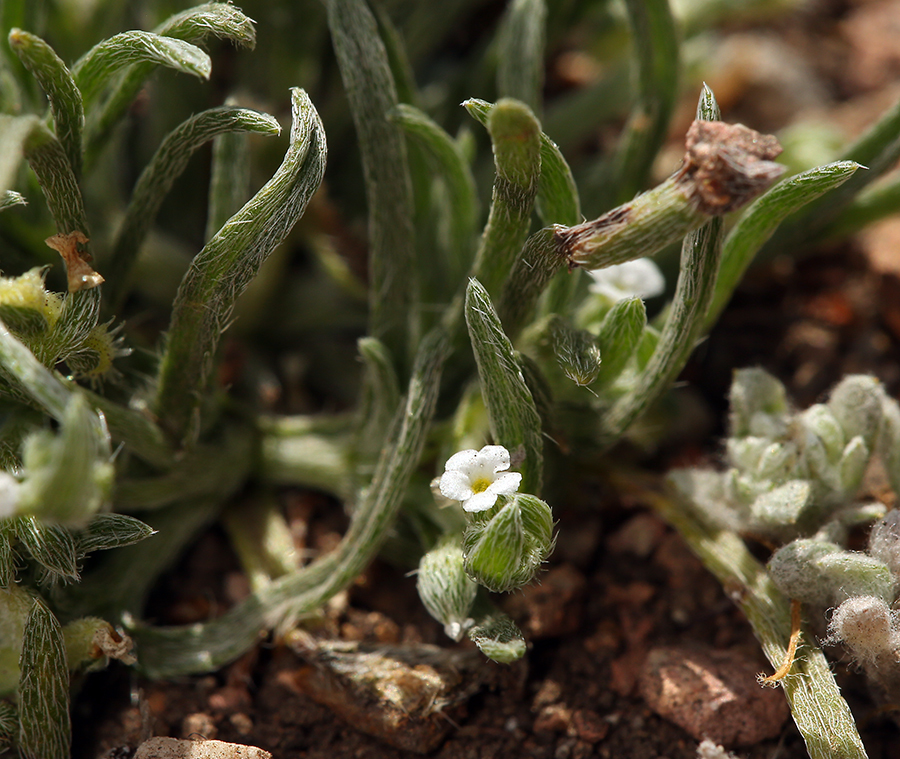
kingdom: Plantae
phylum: Tracheophyta
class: Magnoliopsida
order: Boraginales
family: Boraginaceae
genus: Pectocarya
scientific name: Pectocarya linearis
